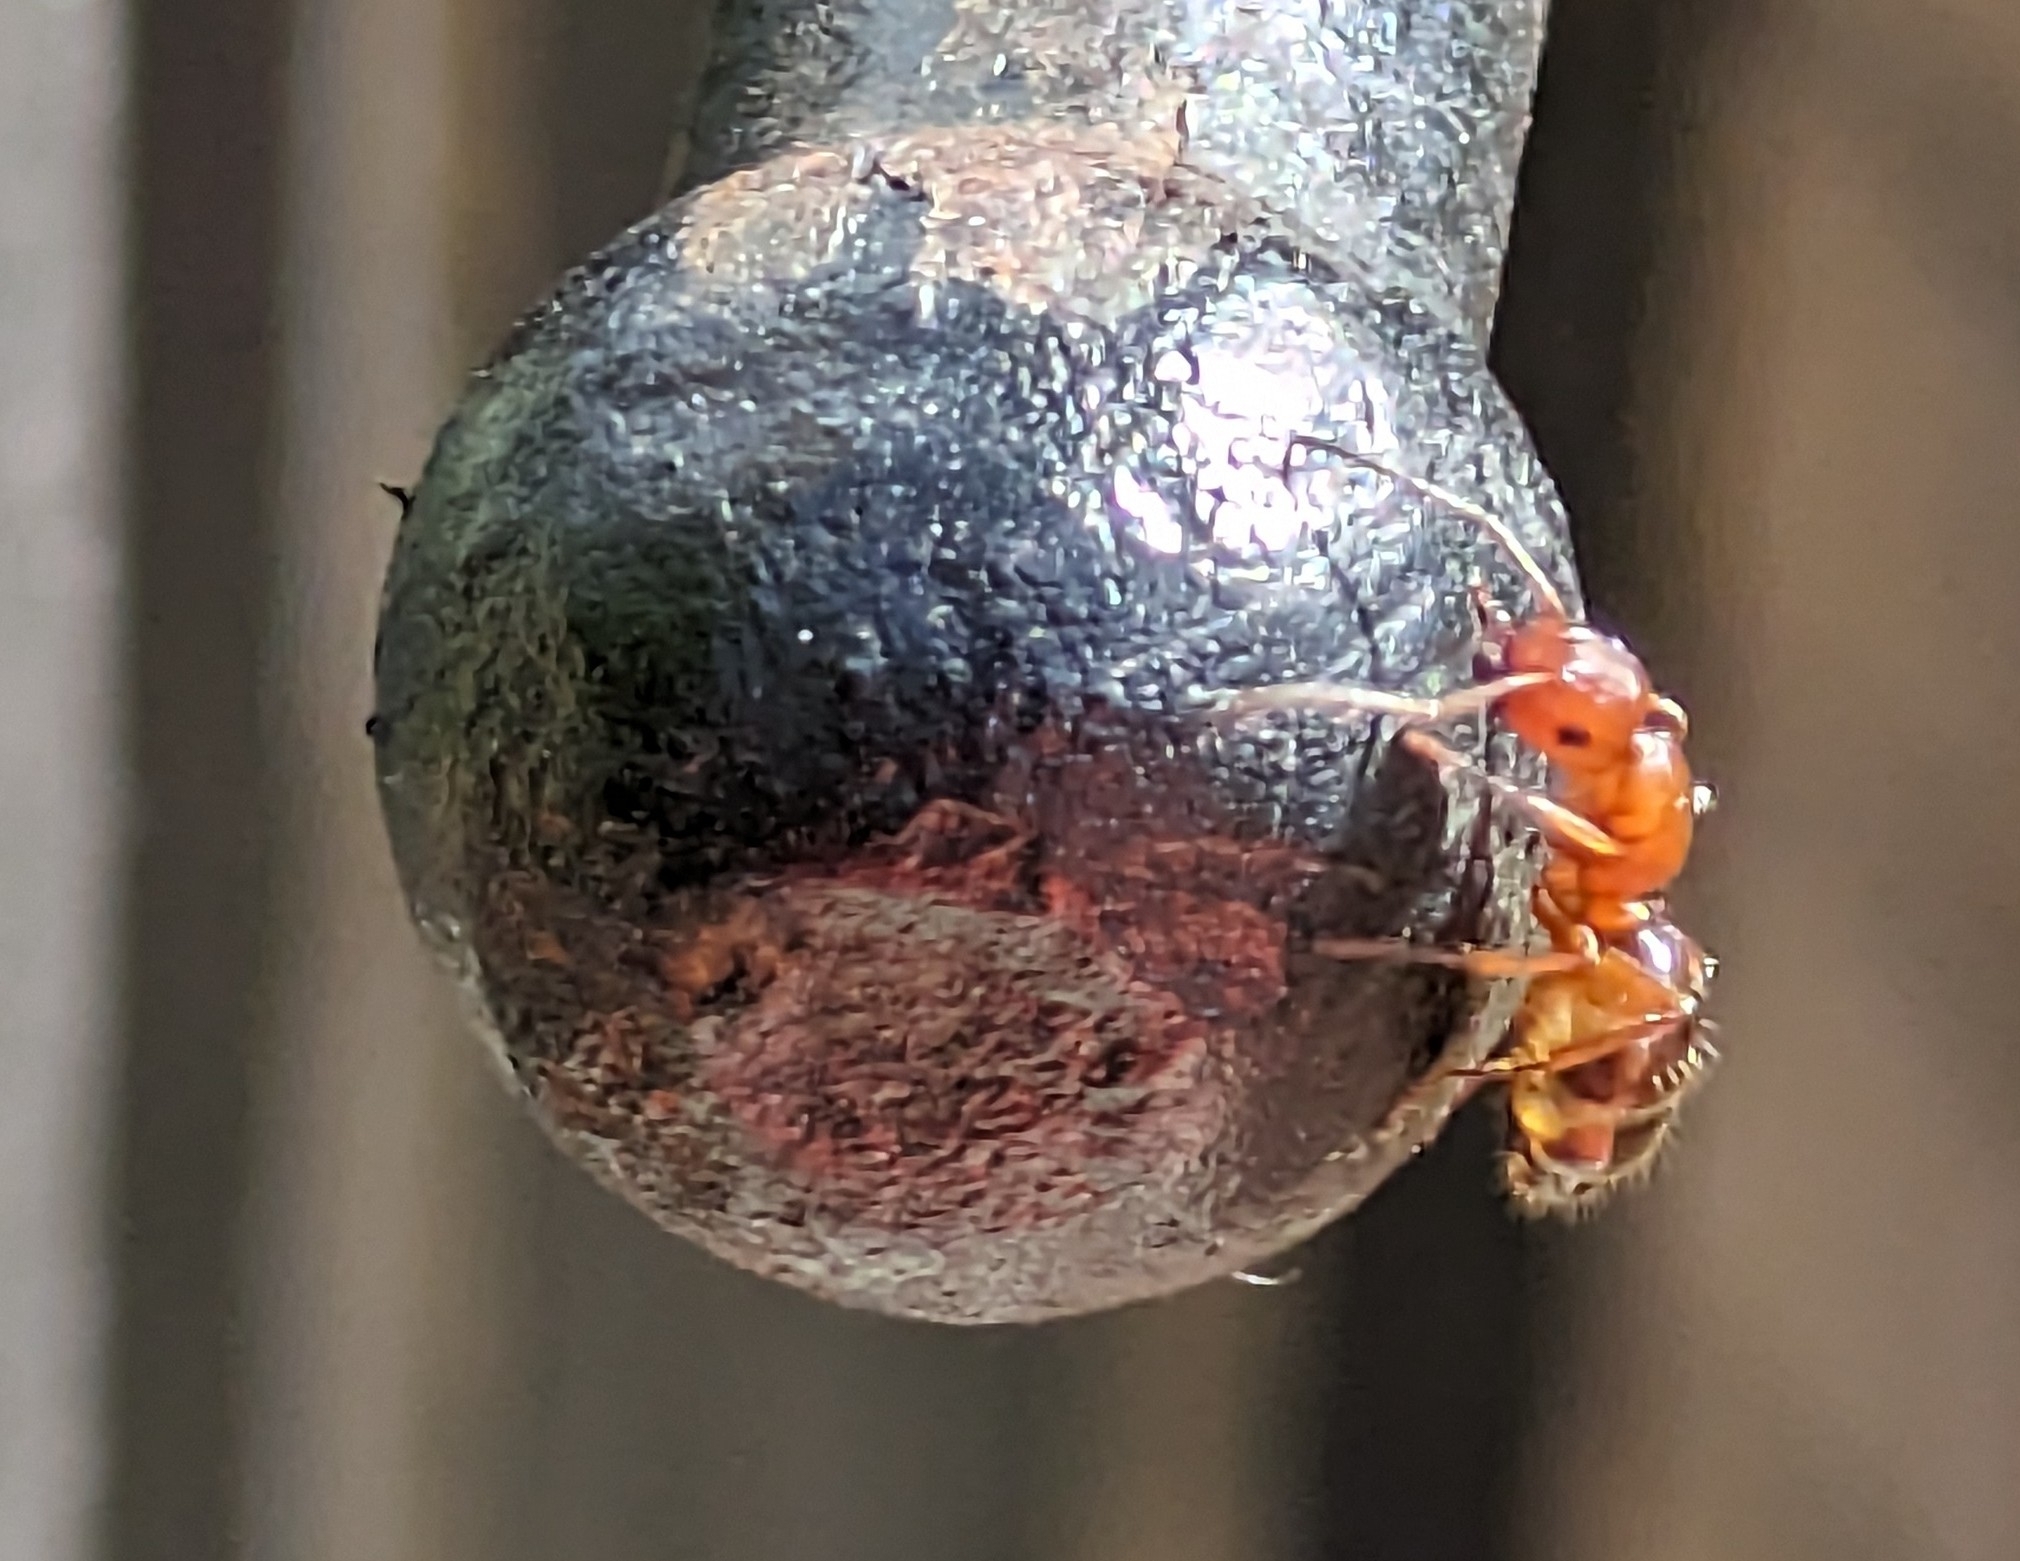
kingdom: Animalia
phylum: Arthropoda
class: Insecta
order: Hymenoptera
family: Formicidae
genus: Camponotus
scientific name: Camponotus snellingi
